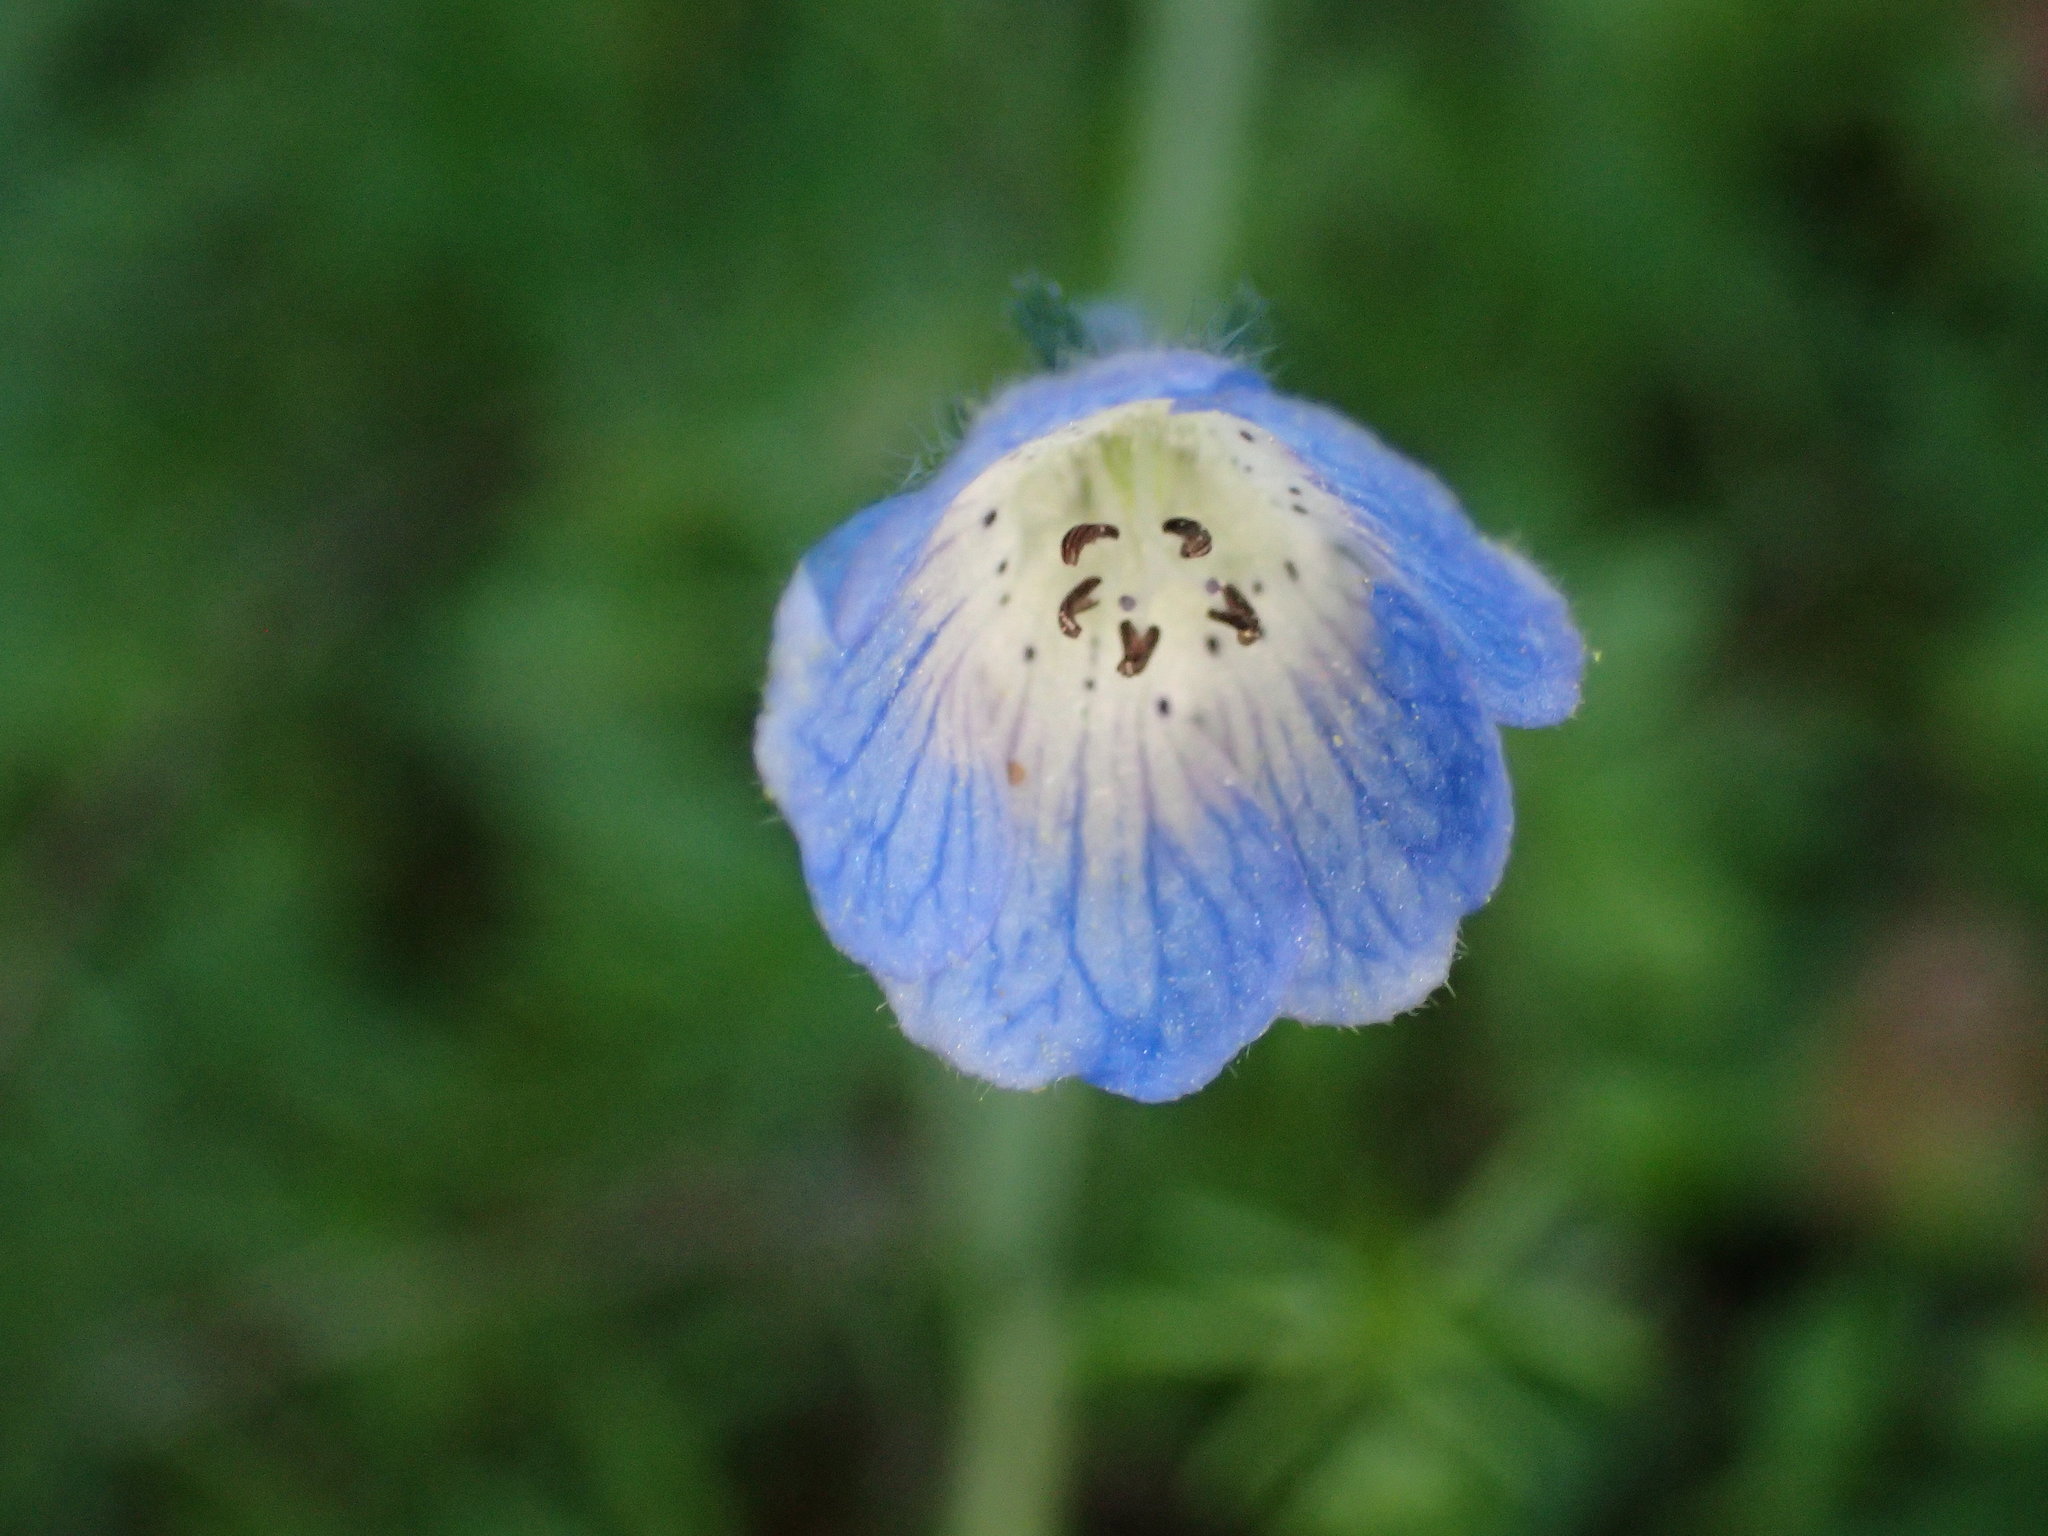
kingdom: Plantae
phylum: Tracheophyta
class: Magnoliopsida
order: Boraginales
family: Hydrophyllaceae
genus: Nemophila
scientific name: Nemophila menziesii
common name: Baby's-blue-eyes
